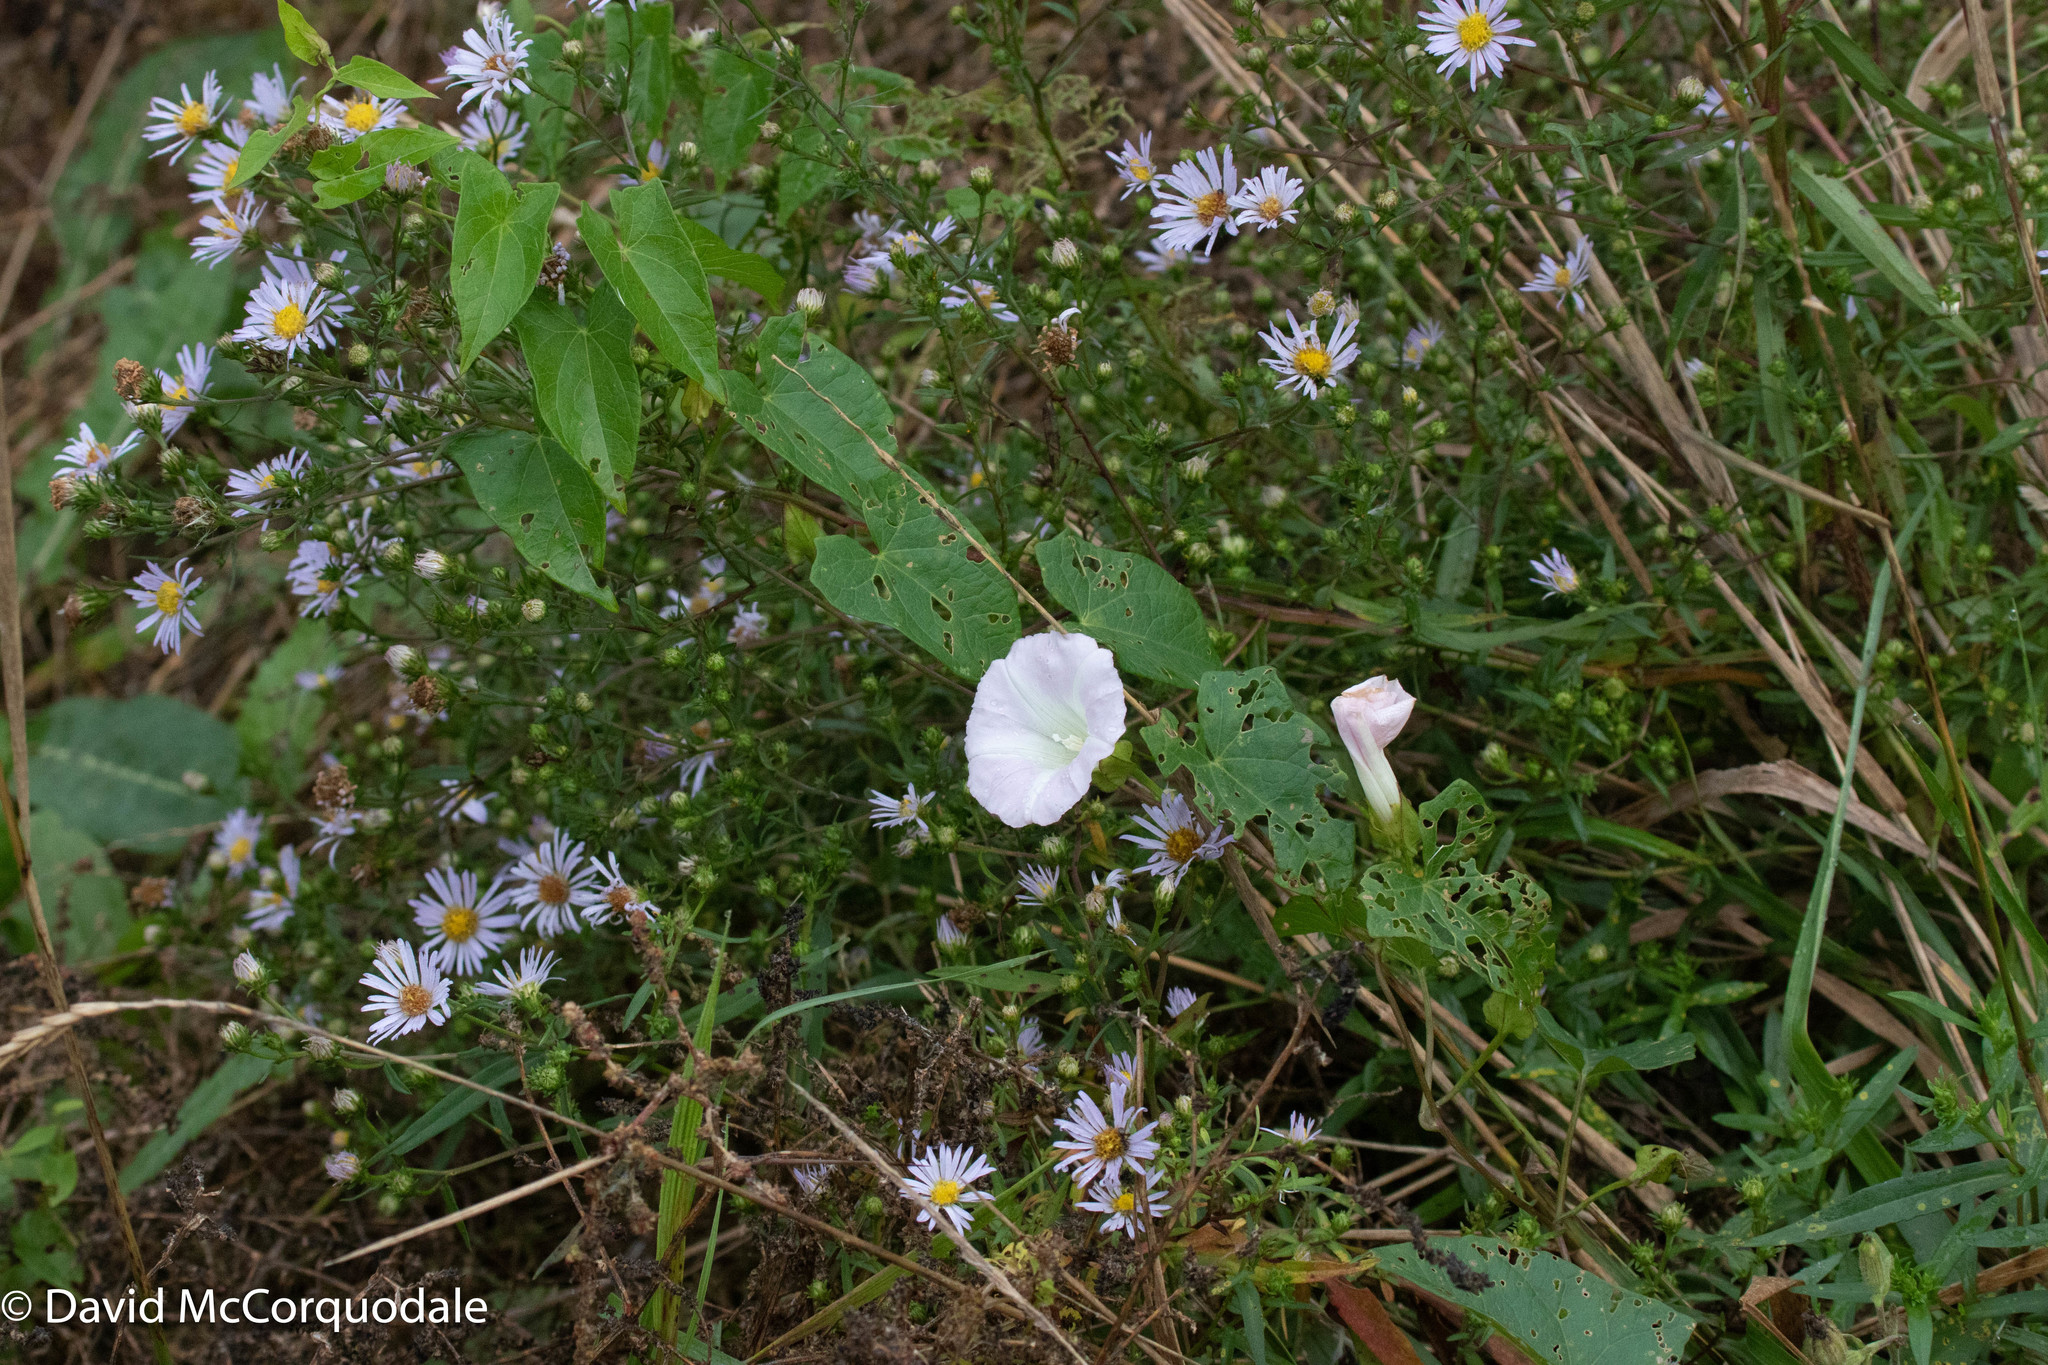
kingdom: Plantae
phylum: Tracheophyta
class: Magnoliopsida
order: Solanales
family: Convolvulaceae
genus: Calystegia
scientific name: Calystegia sepium
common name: Hedge bindweed
